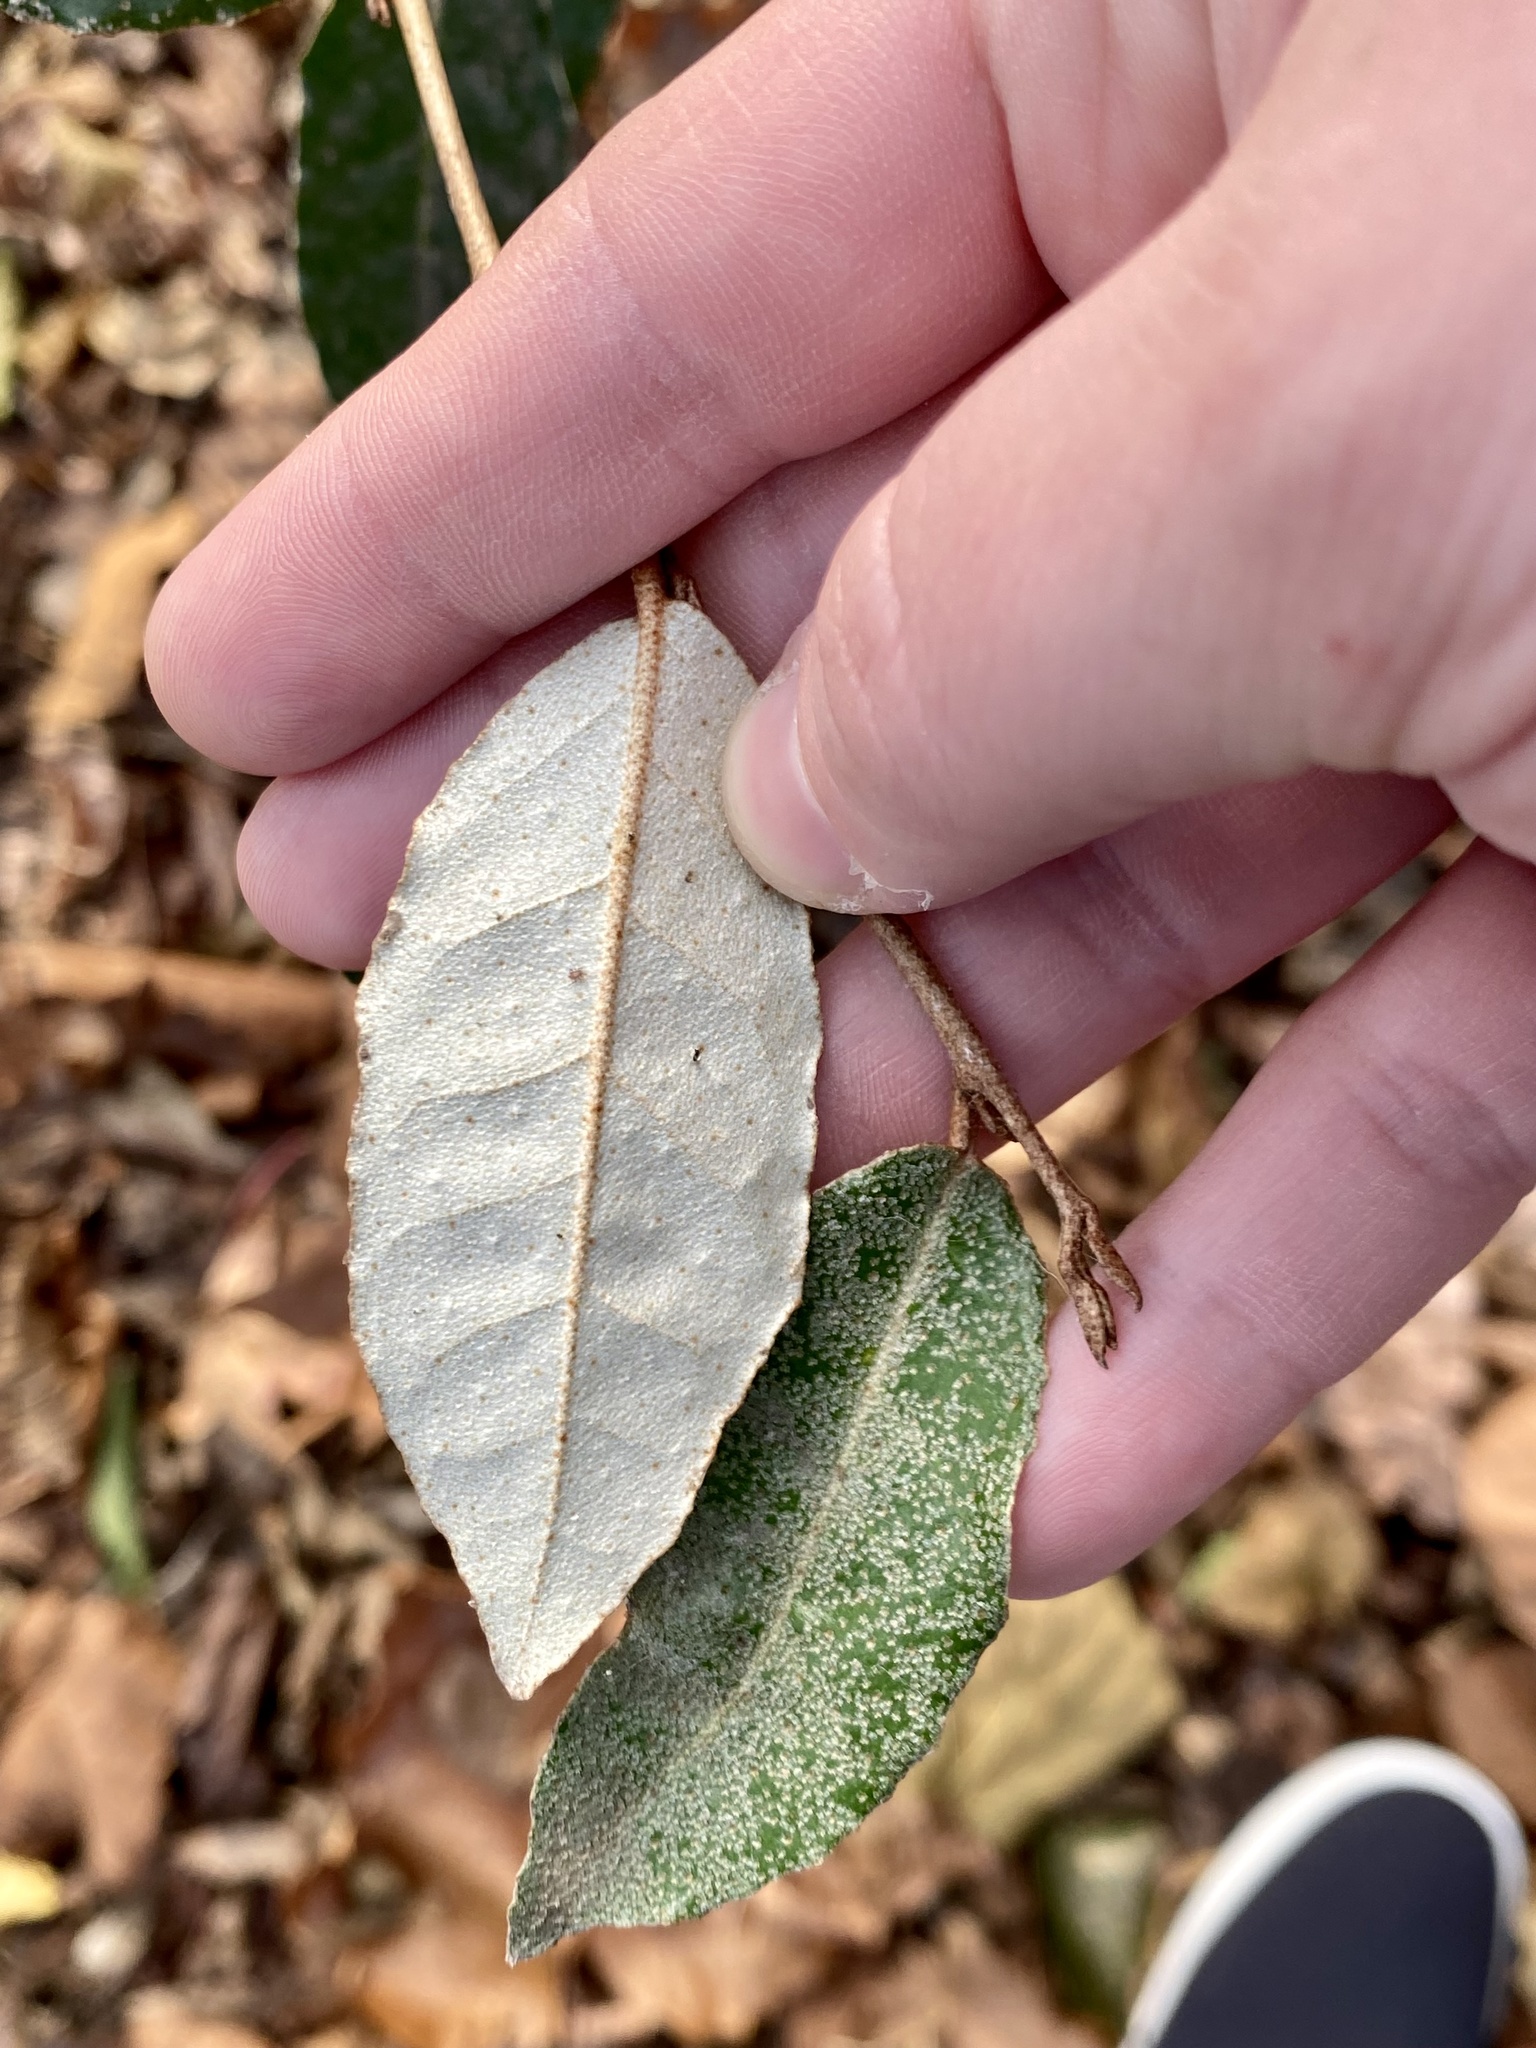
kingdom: Plantae
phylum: Tracheophyta
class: Magnoliopsida
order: Rosales
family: Elaeagnaceae
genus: Elaeagnus
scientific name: Elaeagnus pungens
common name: Spiny oleaster
